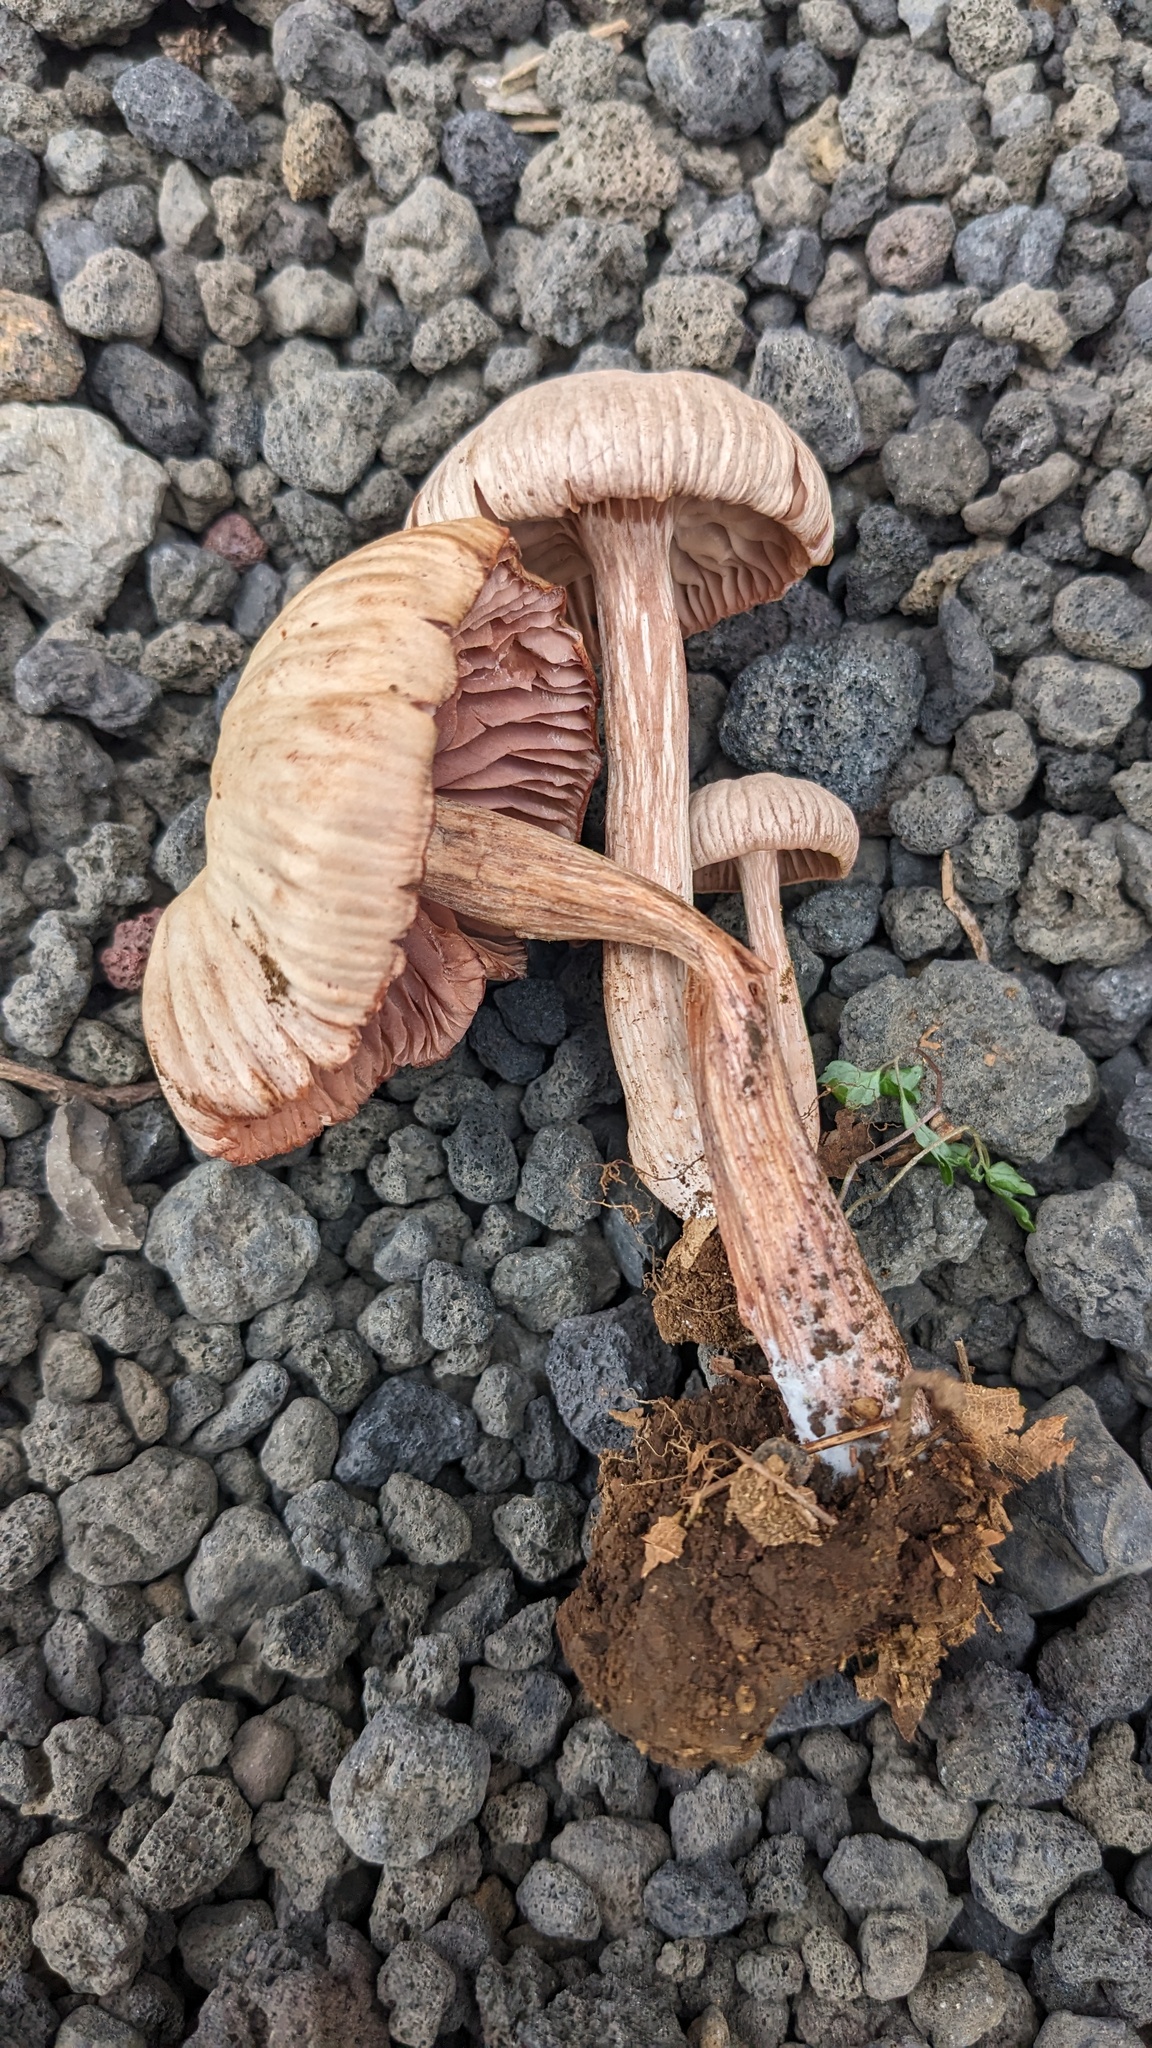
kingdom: Fungi
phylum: Basidiomycota
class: Agaricomycetes
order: Agaricales
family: Hydnangiaceae
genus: Laccaria
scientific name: Laccaria vinaceoavellanea
